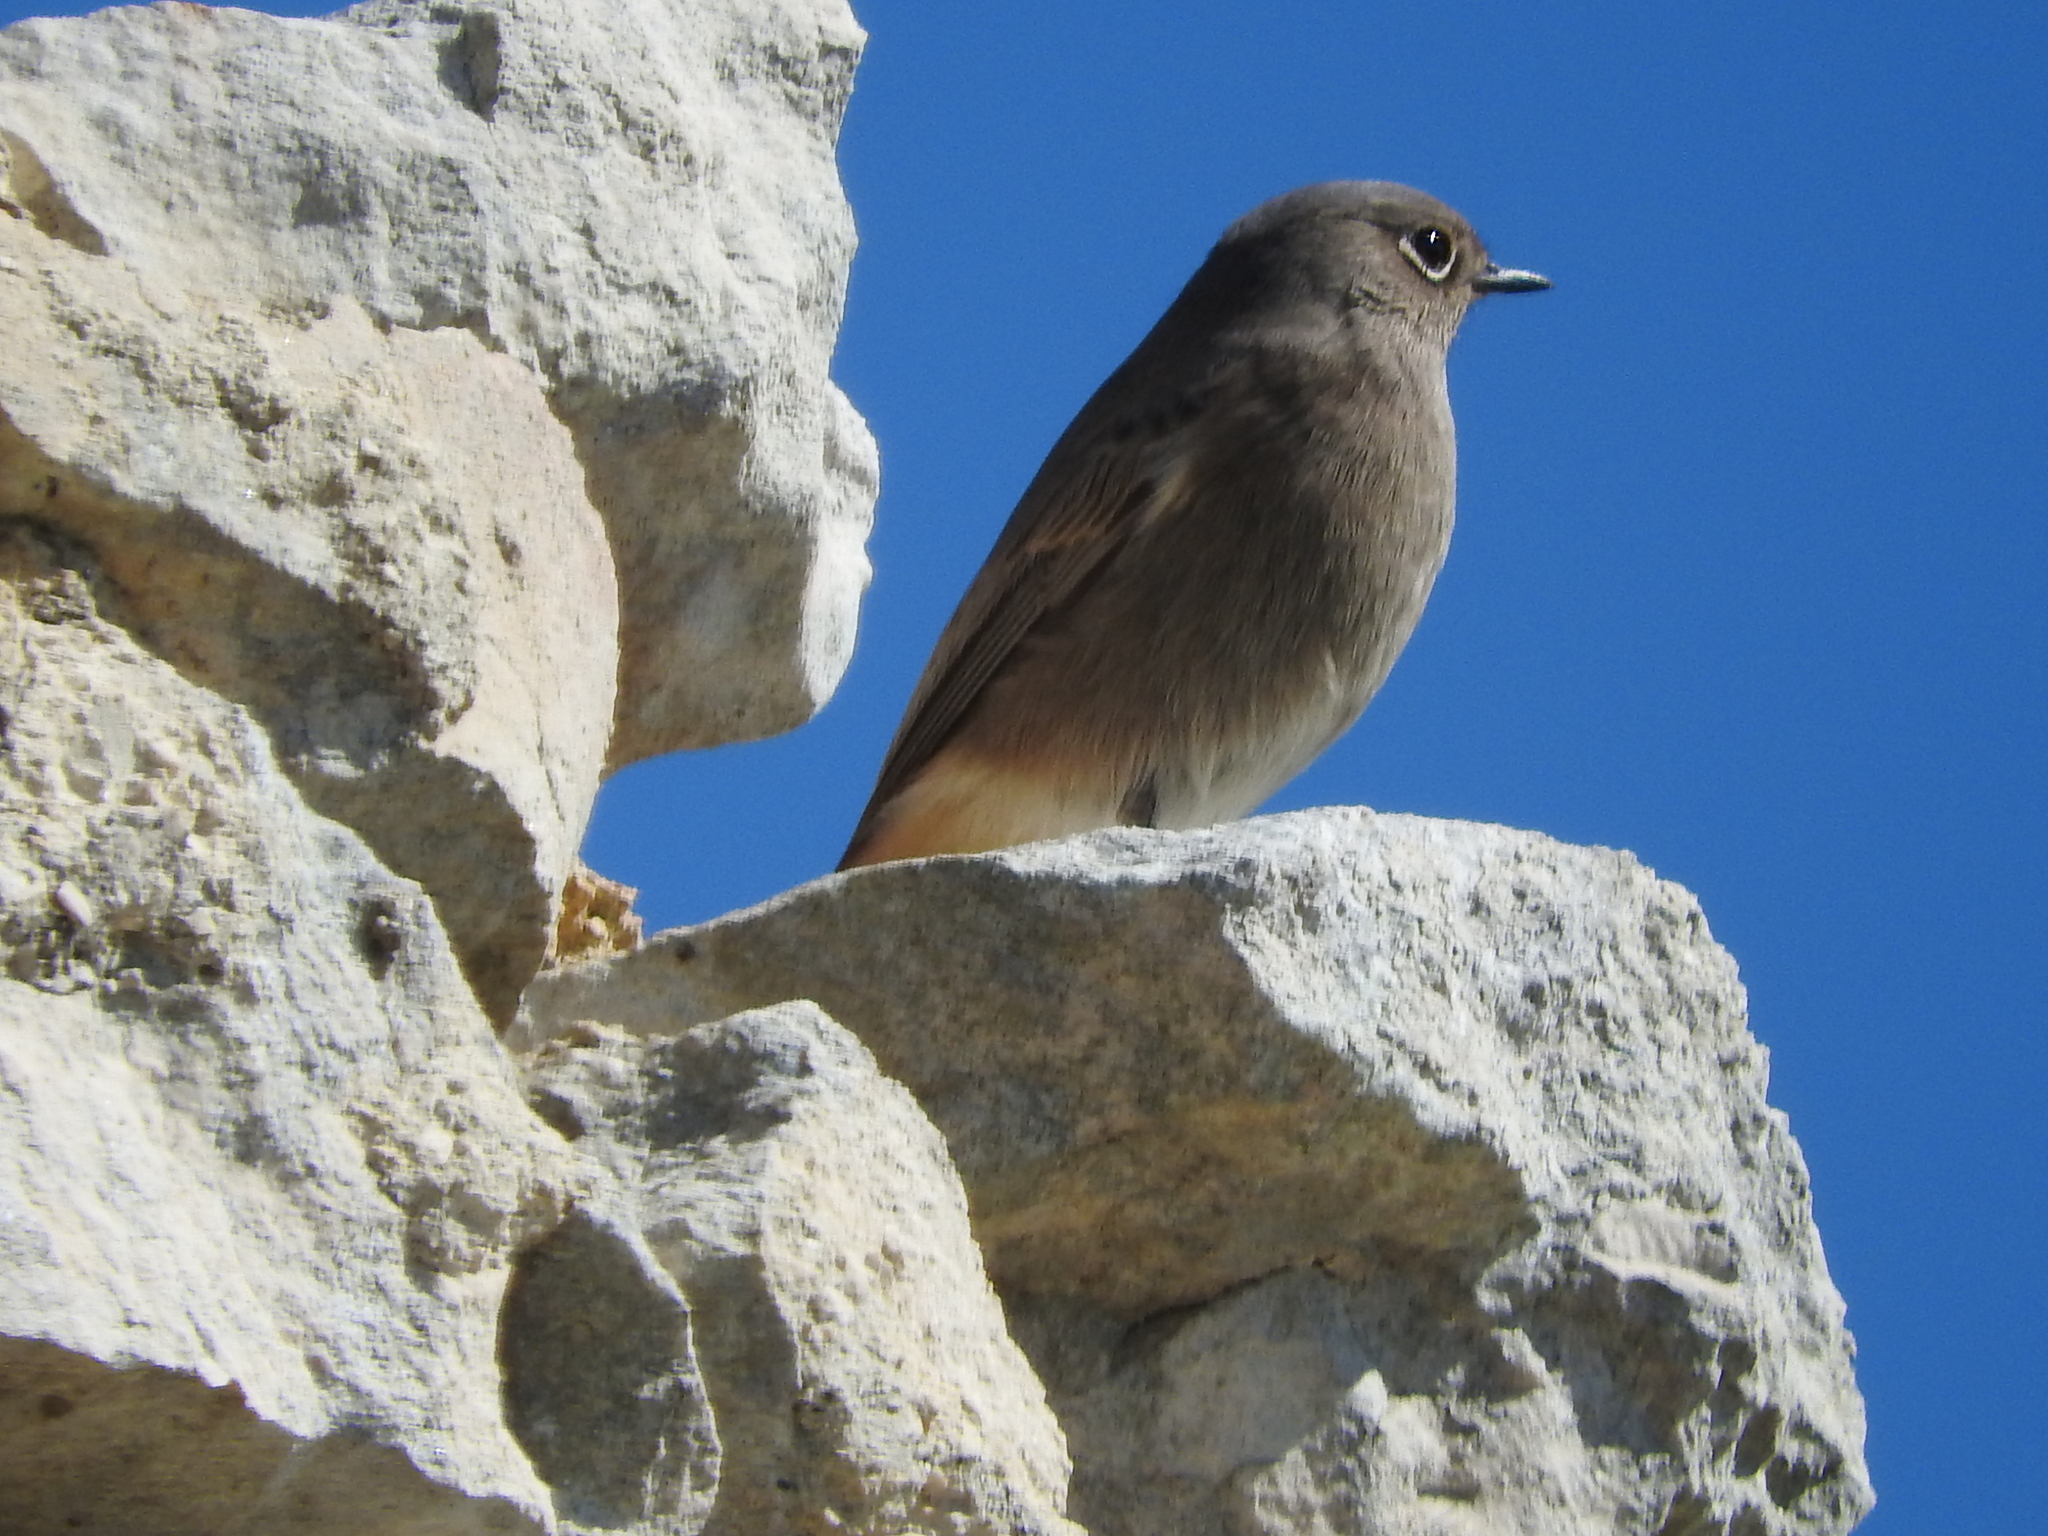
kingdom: Animalia
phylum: Chordata
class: Aves
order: Passeriformes
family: Muscicapidae
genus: Phoenicurus
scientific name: Phoenicurus ochruros
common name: Black redstart
